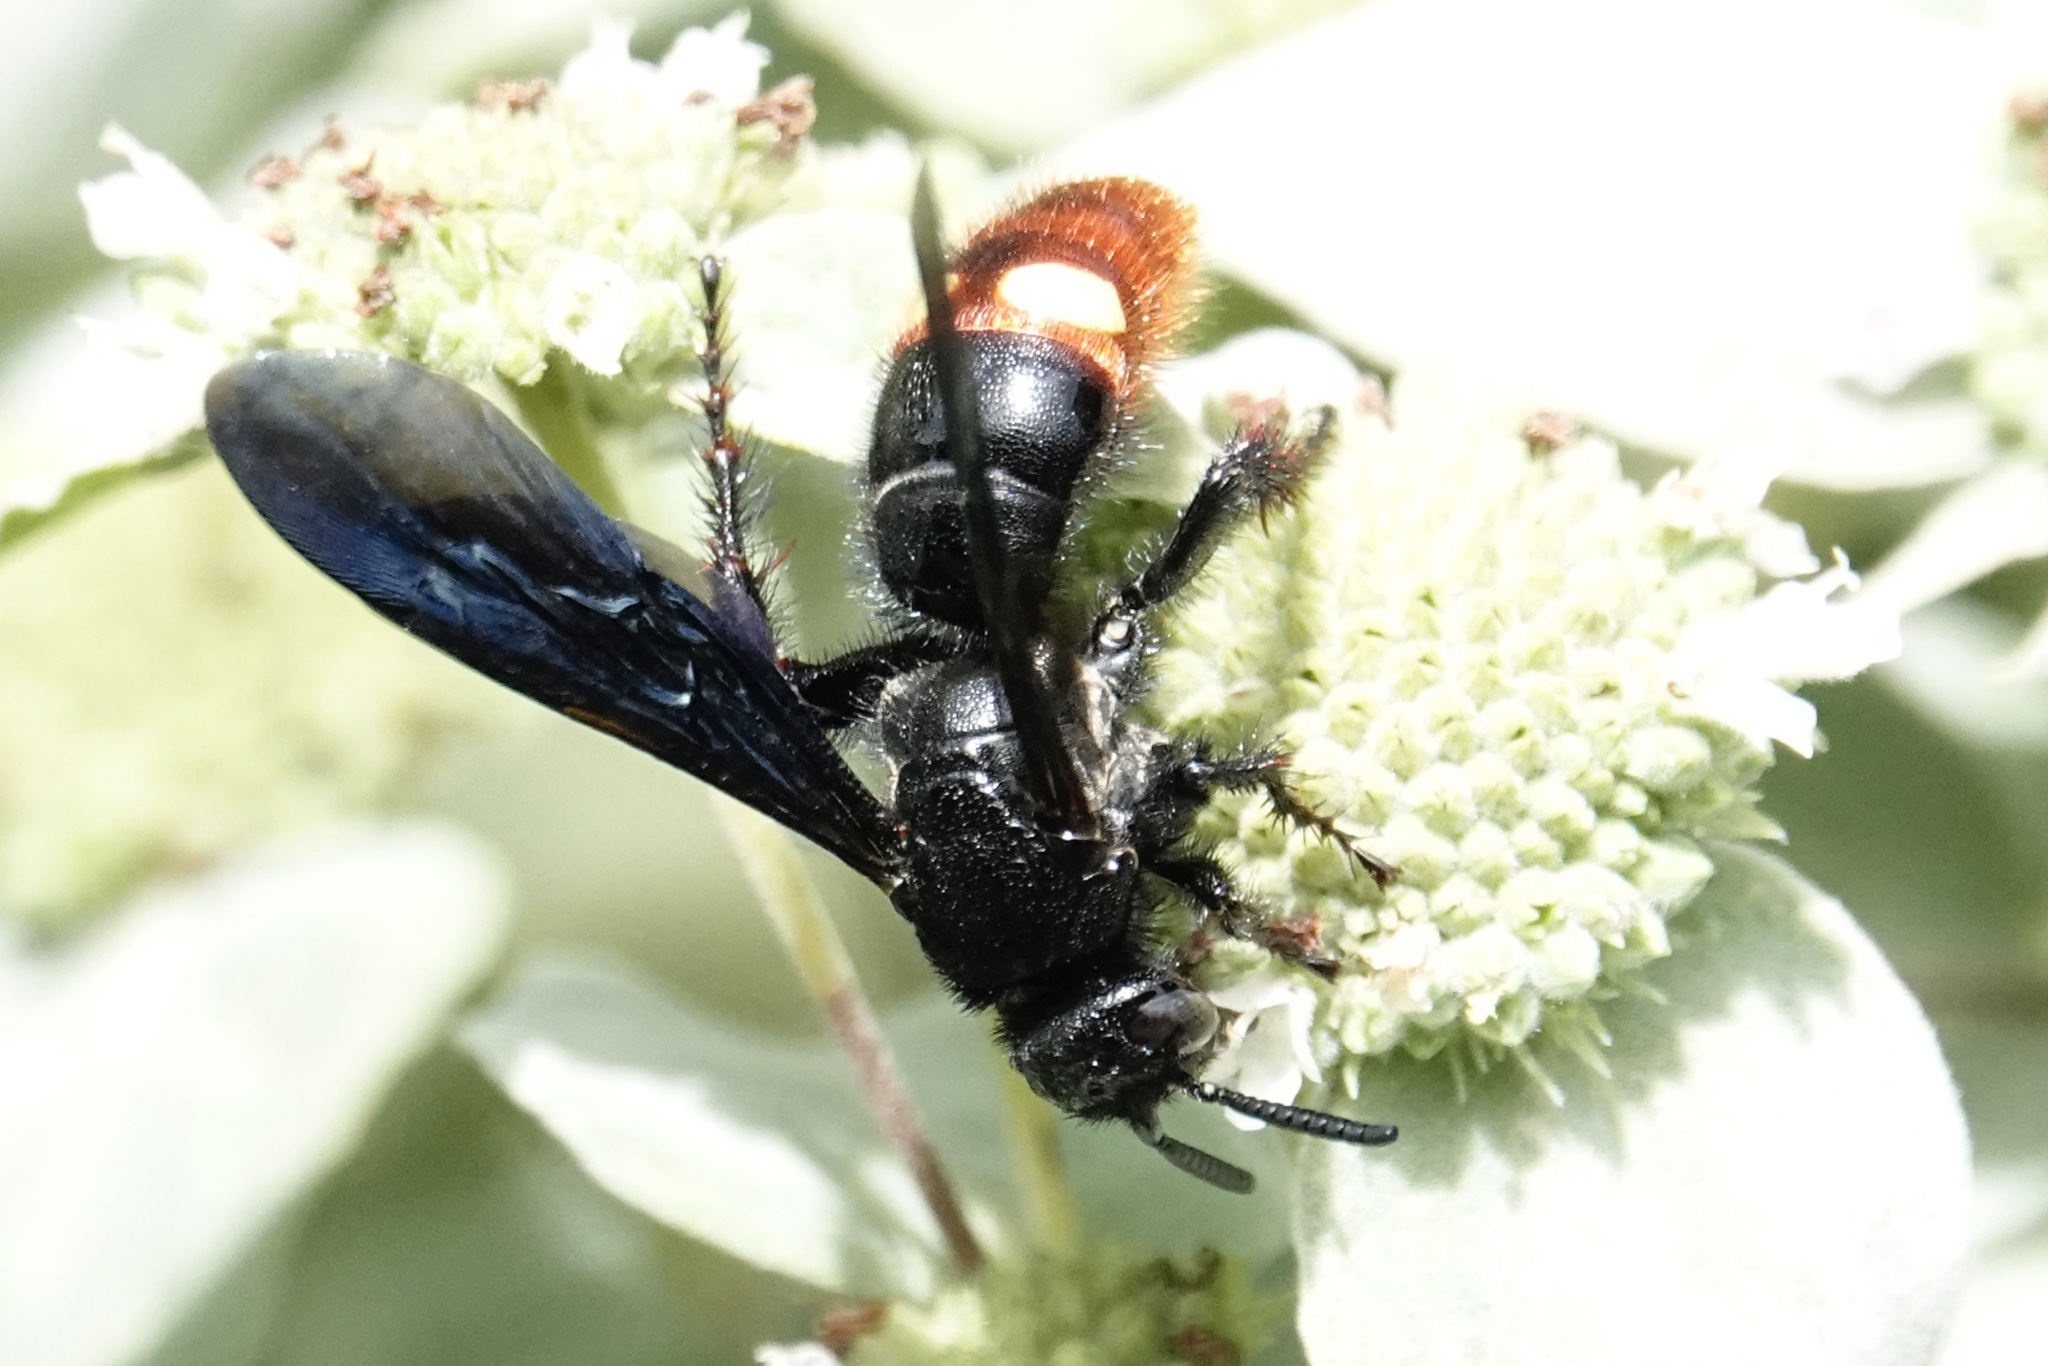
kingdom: Animalia
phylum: Arthropoda
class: Insecta
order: Hymenoptera
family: Scoliidae
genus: Scolia
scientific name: Scolia dubia
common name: Blue-winged scoliid wasp
